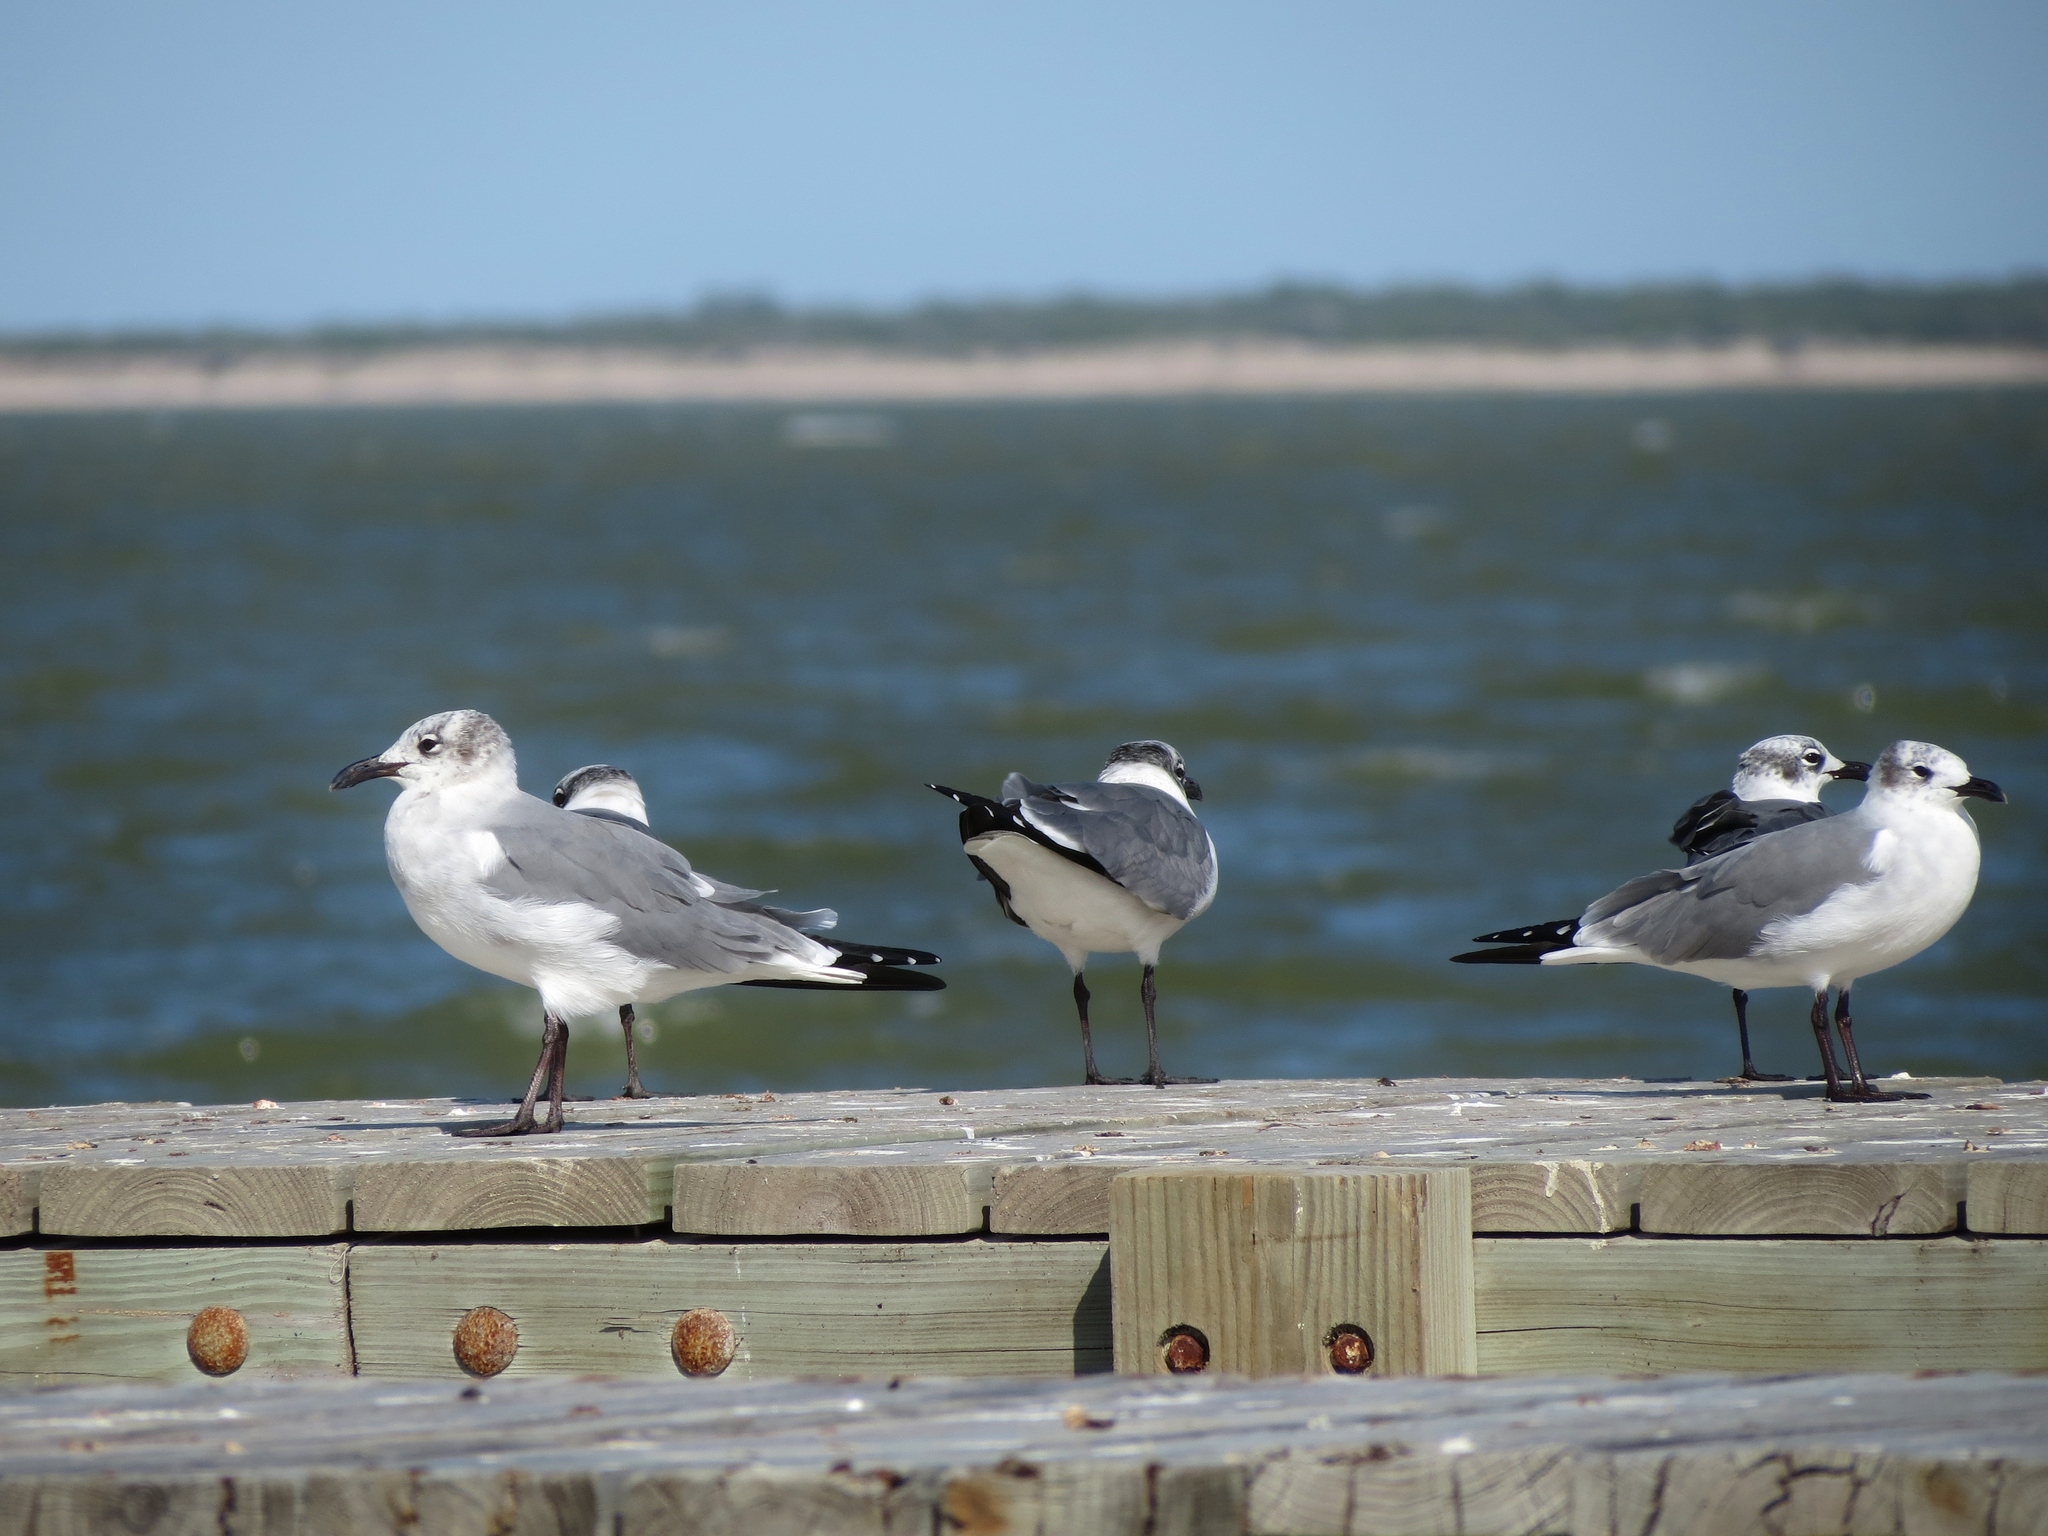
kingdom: Animalia
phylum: Chordata
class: Aves
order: Charadriiformes
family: Laridae
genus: Leucophaeus
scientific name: Leucophaeus atricilla
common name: Laughing gull
